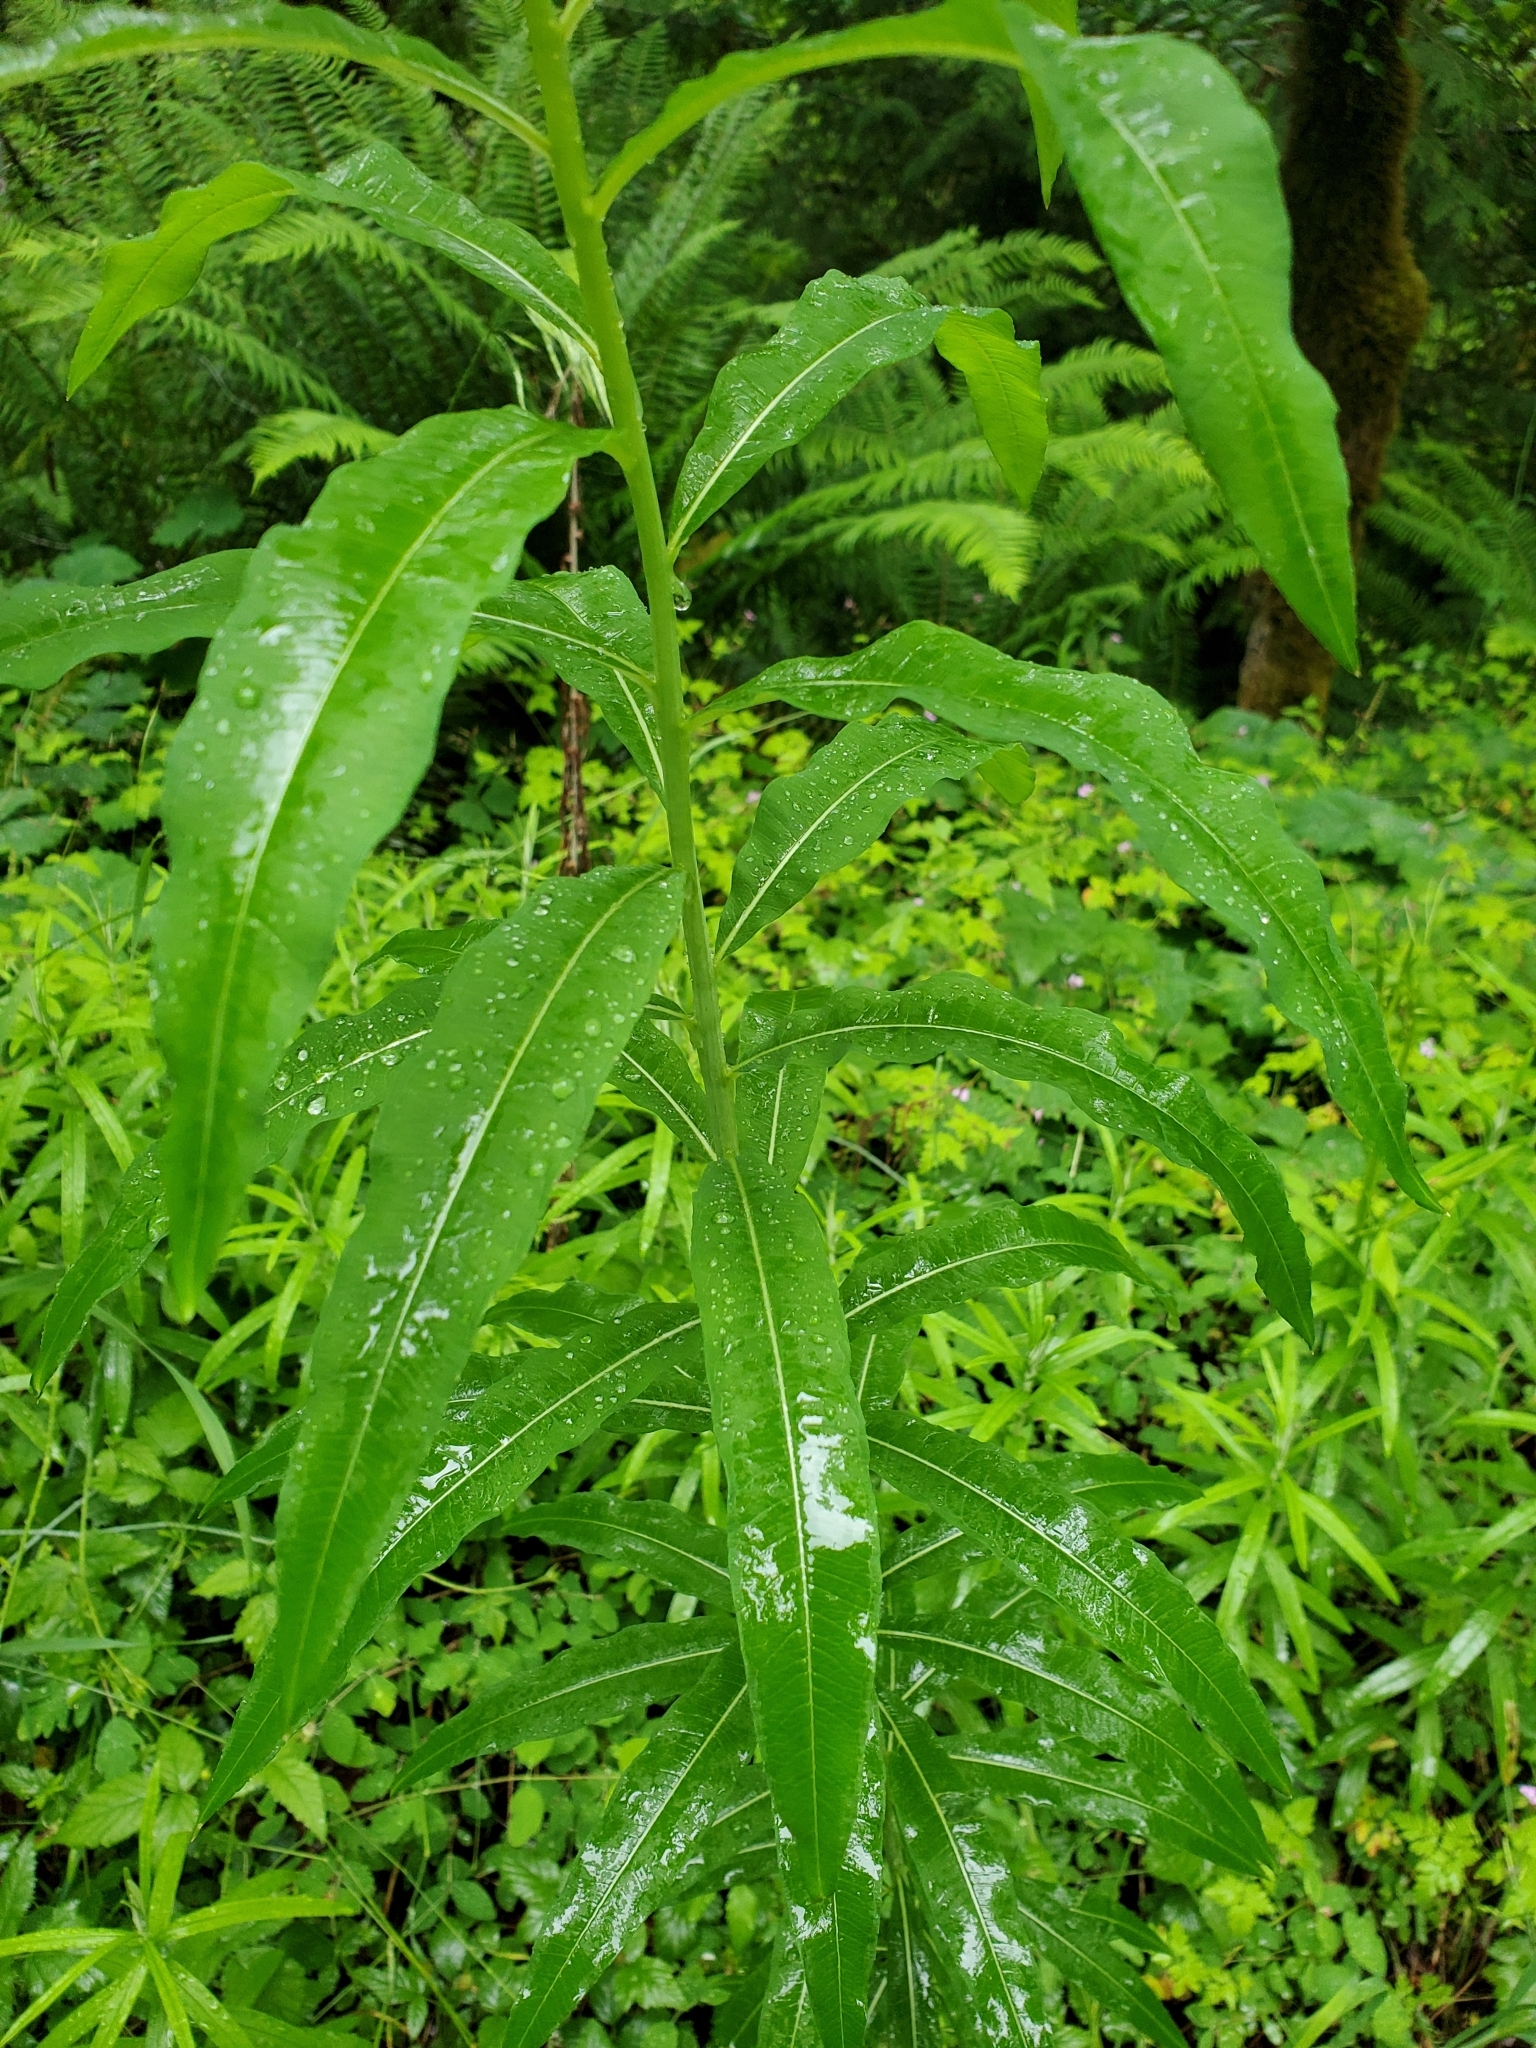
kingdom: Plantae
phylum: Tracheophyta
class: Magnoliopsida
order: Myrtales
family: Onagraceae
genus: Chamaenerion
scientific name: Chamaenerion angustifolium
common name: Fireweed
